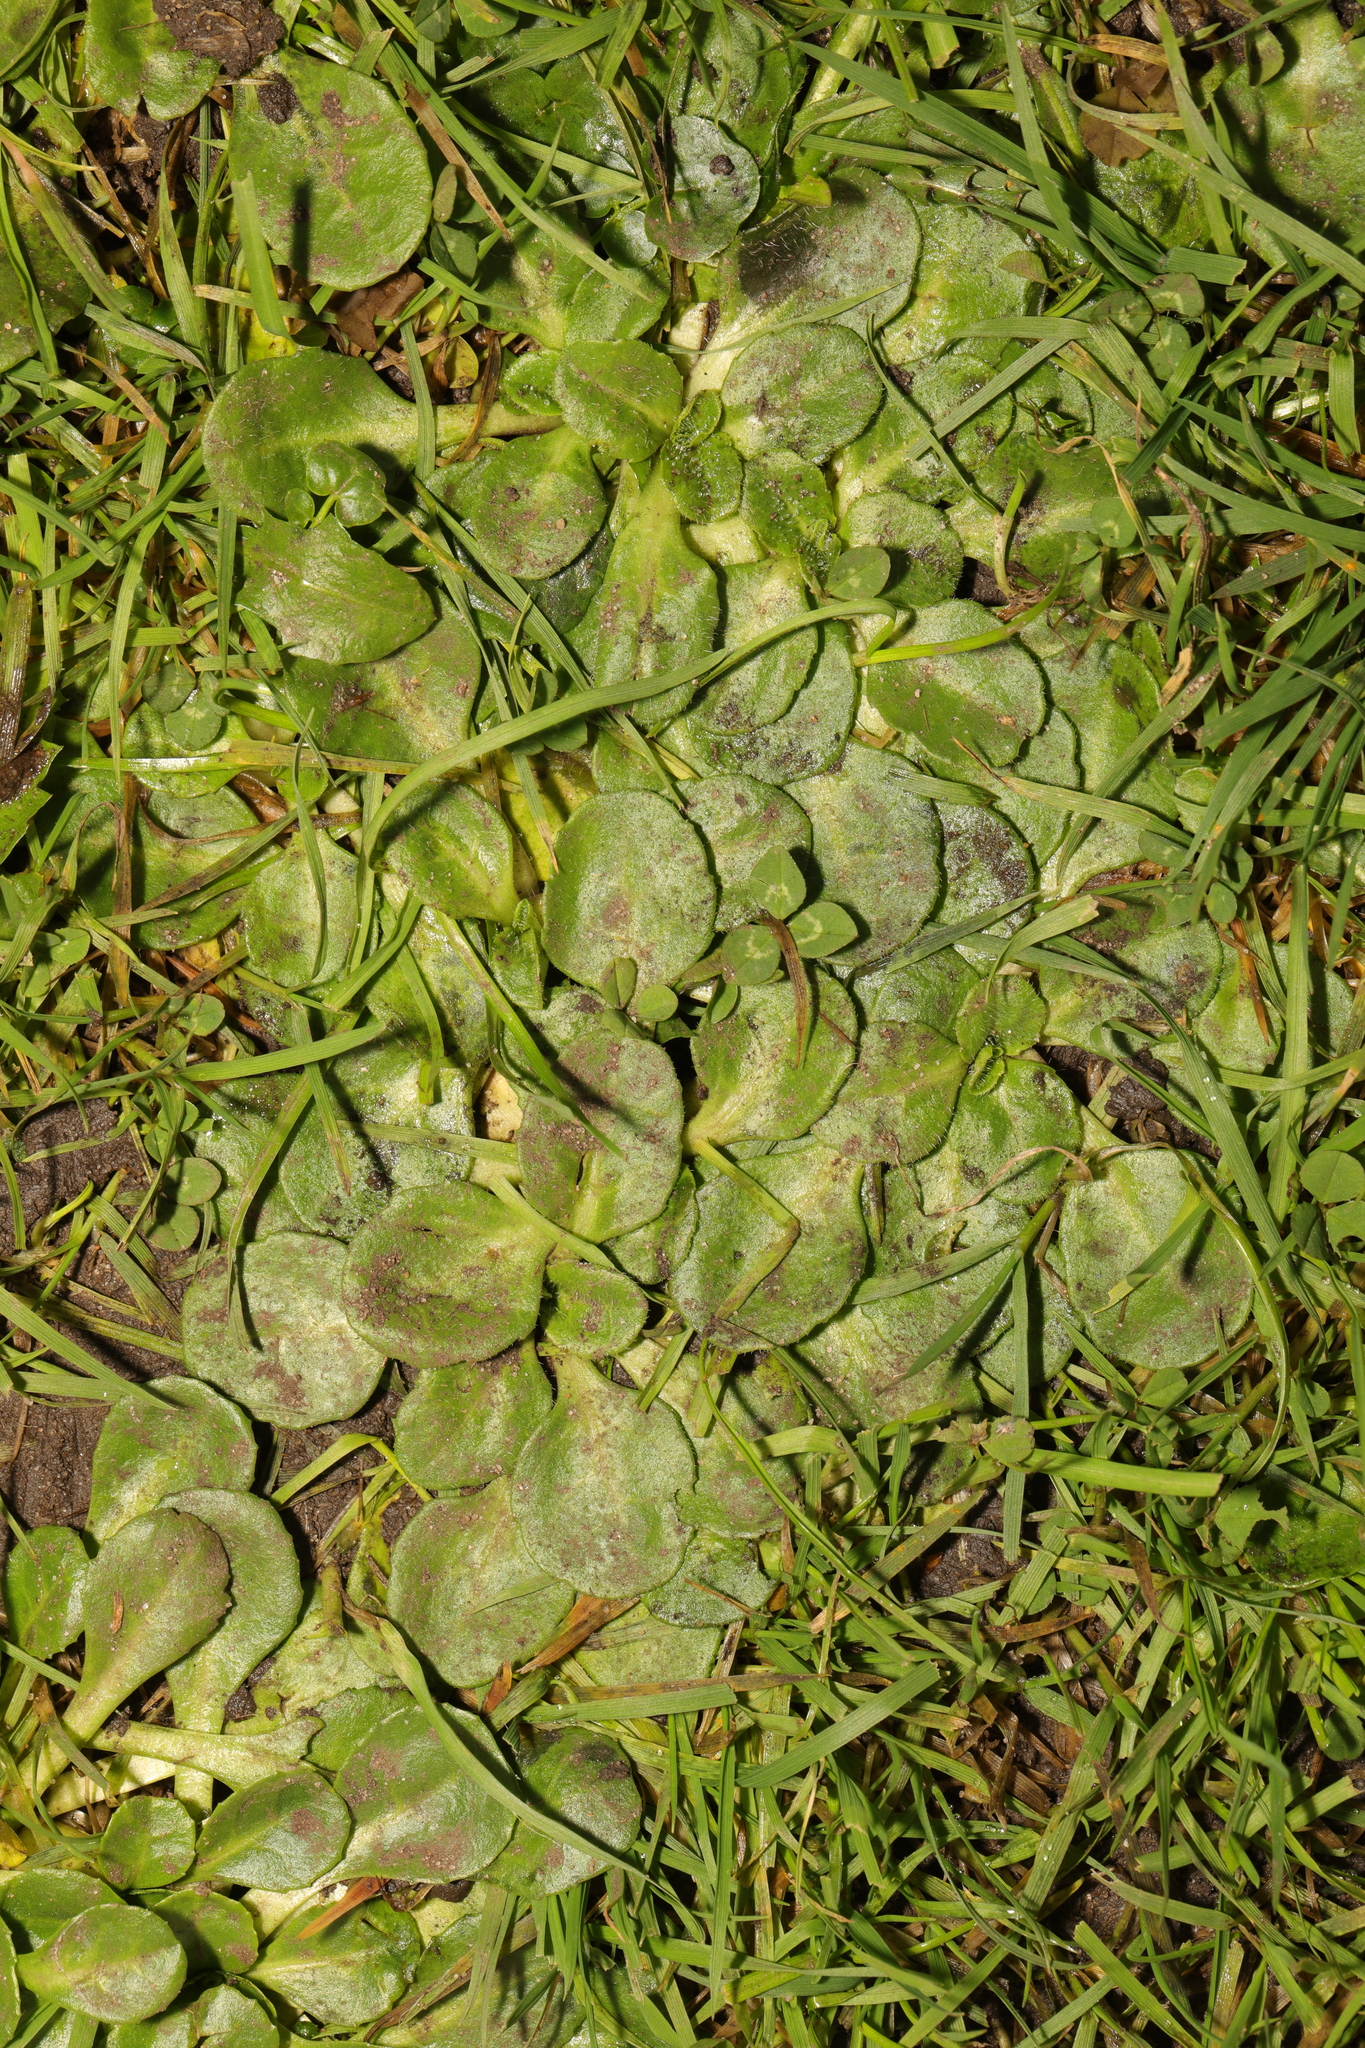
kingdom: Plantae
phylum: Tracheophyta
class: Magnoliopsida
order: Asterales
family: Asteraceae
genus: Bellis
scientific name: Bellis perennis
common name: Lawndaisy
